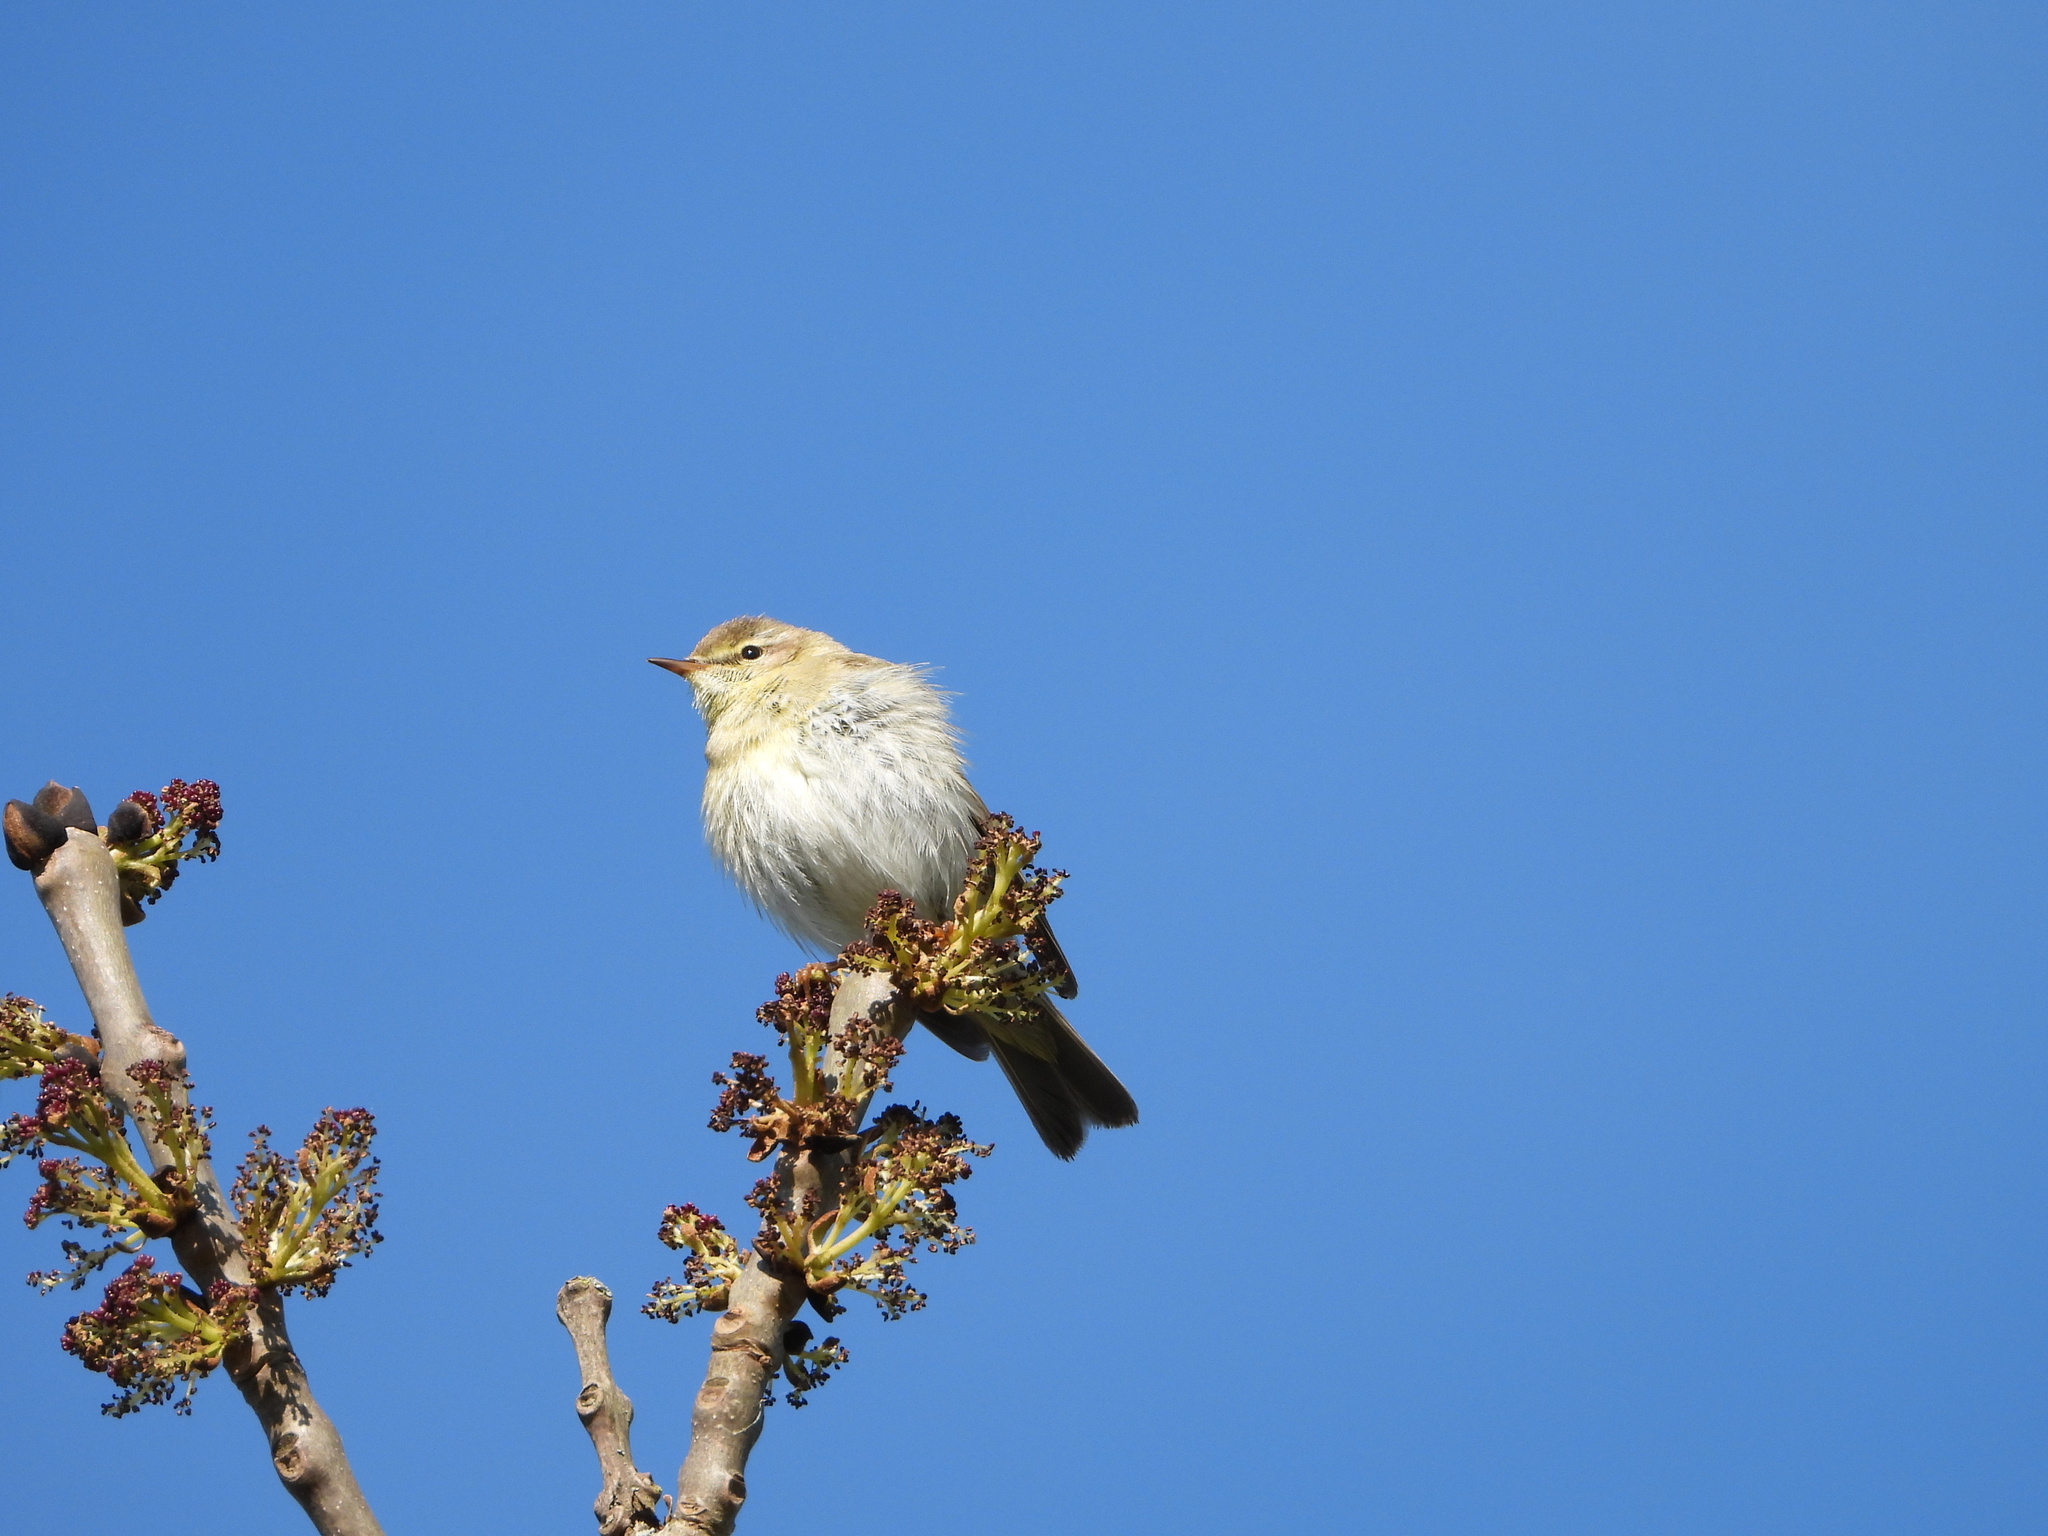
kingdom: Animalia
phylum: Chordata
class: Aves
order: Passeriformes
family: Phylloscopidae
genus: Phylloscopus
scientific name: Phylloscopus trochilus
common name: Willow warbler
